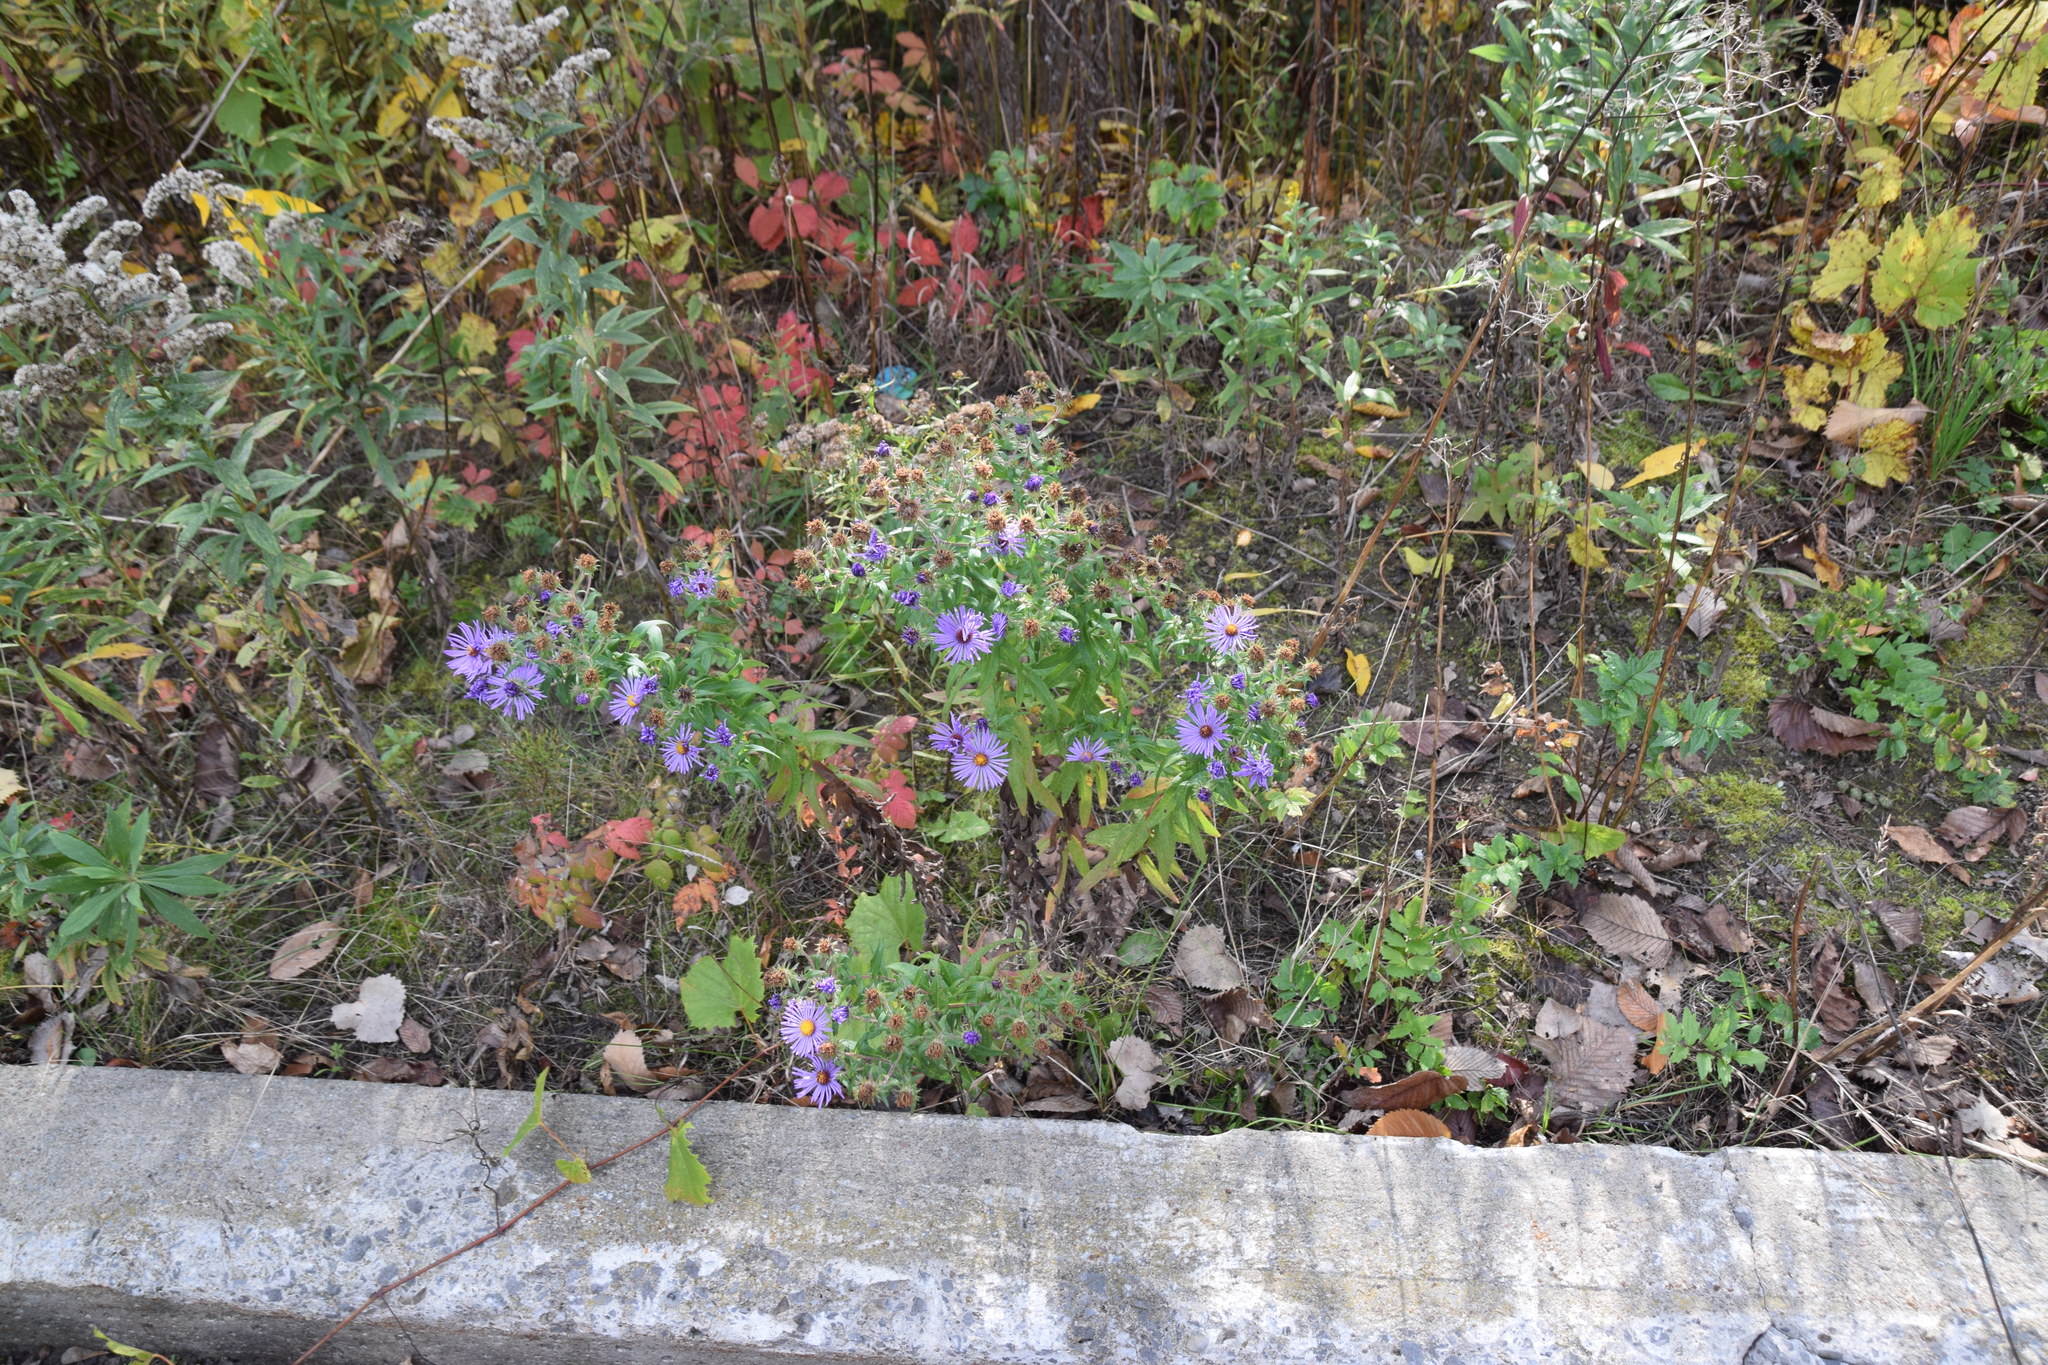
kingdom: Plantae
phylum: Tracheophyta
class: Magnoliopsida
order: Asterales
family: Asteraceae
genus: Symphyotrichum
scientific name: Symphyotrichum novae-angliae
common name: Michaelmas daisy
